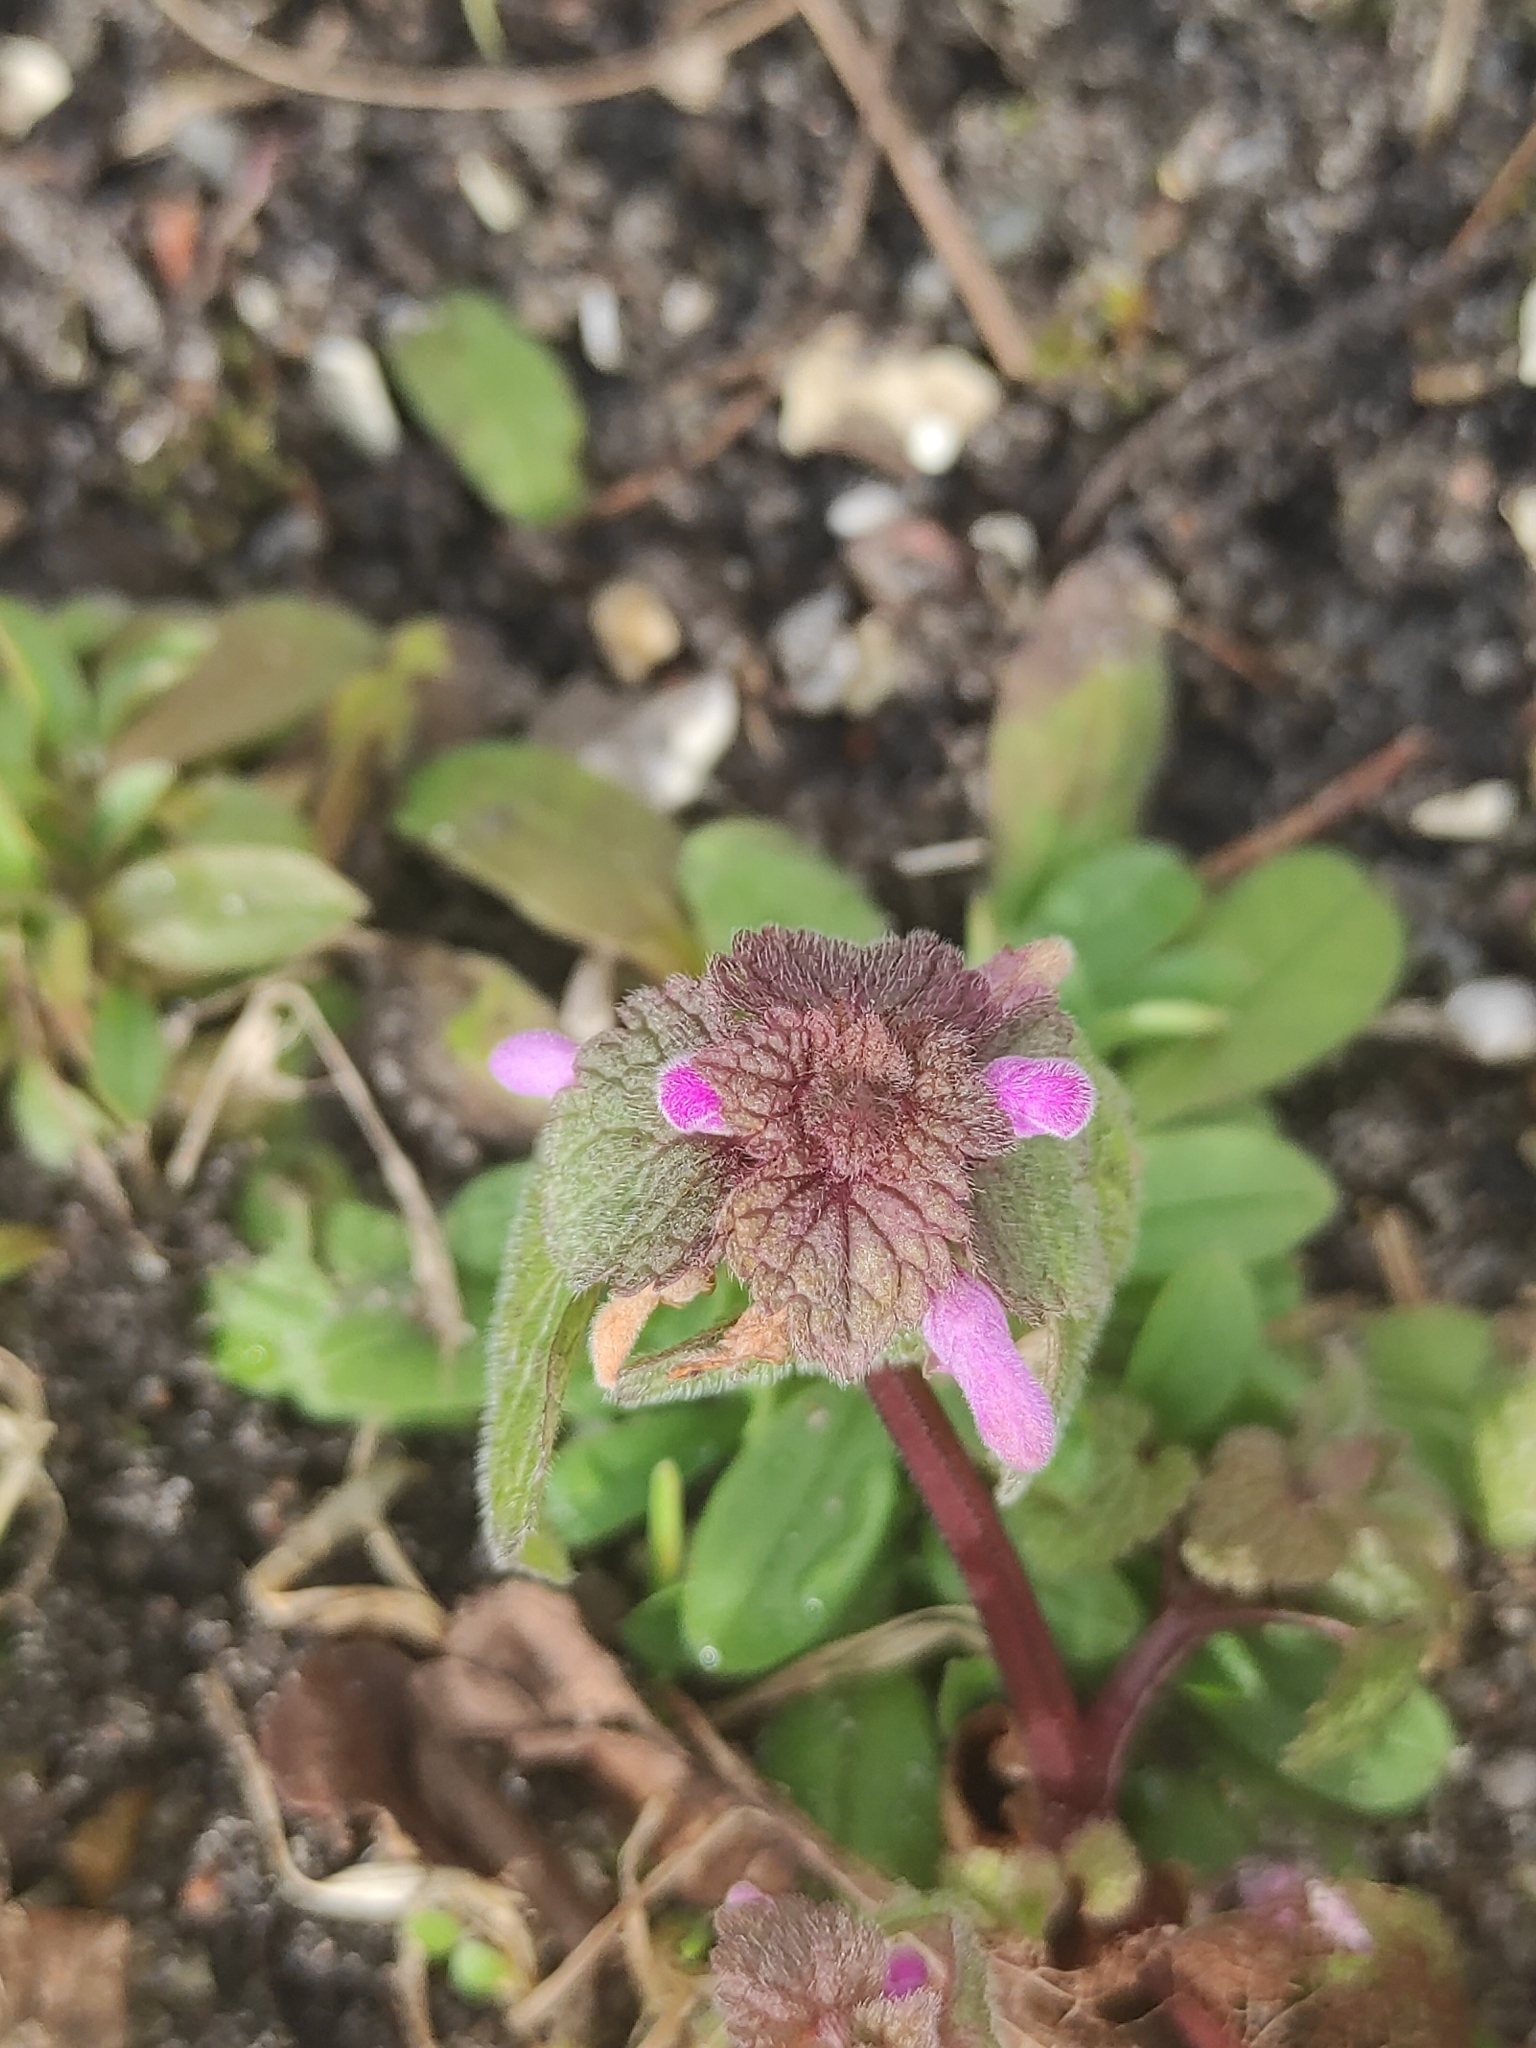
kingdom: Plantae
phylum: Tracheophyta
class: Magnoliopsida
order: Lamiales
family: Lamiaceae
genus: Lamium
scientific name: Lamium purpureum
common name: Red dead-nettle
